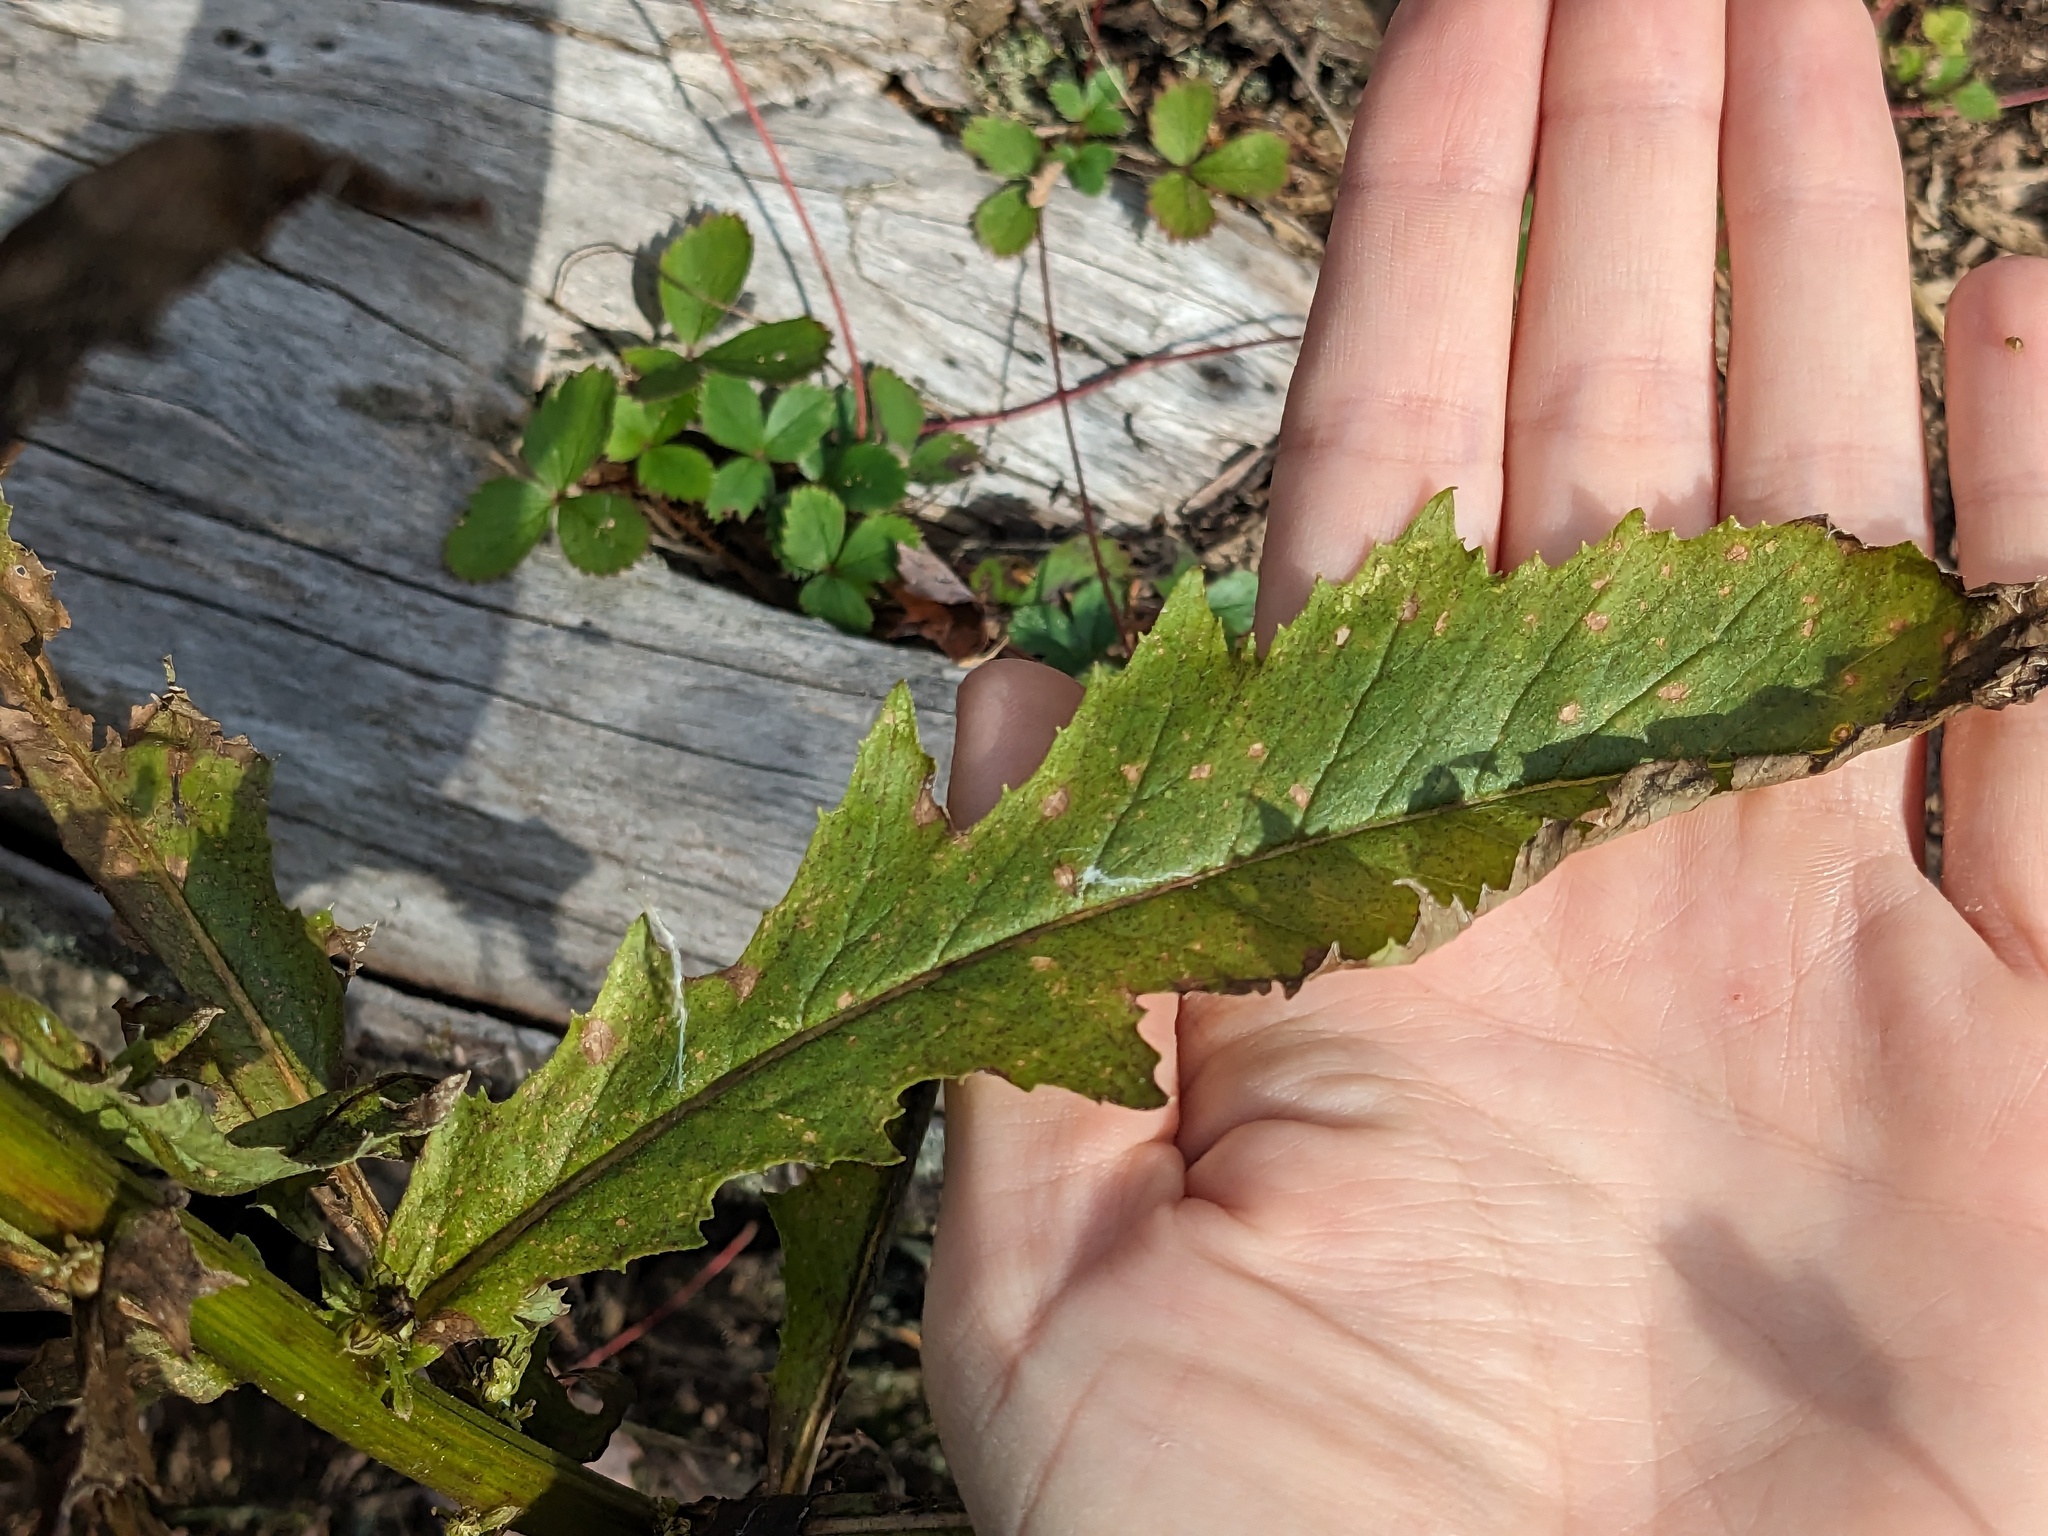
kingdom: Plantae
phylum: Tracheophyta
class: Magnoliopsida
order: Asterales
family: Asteraceae
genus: Erechtites
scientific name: Erechtites hieraciifolius
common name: American burnweed
